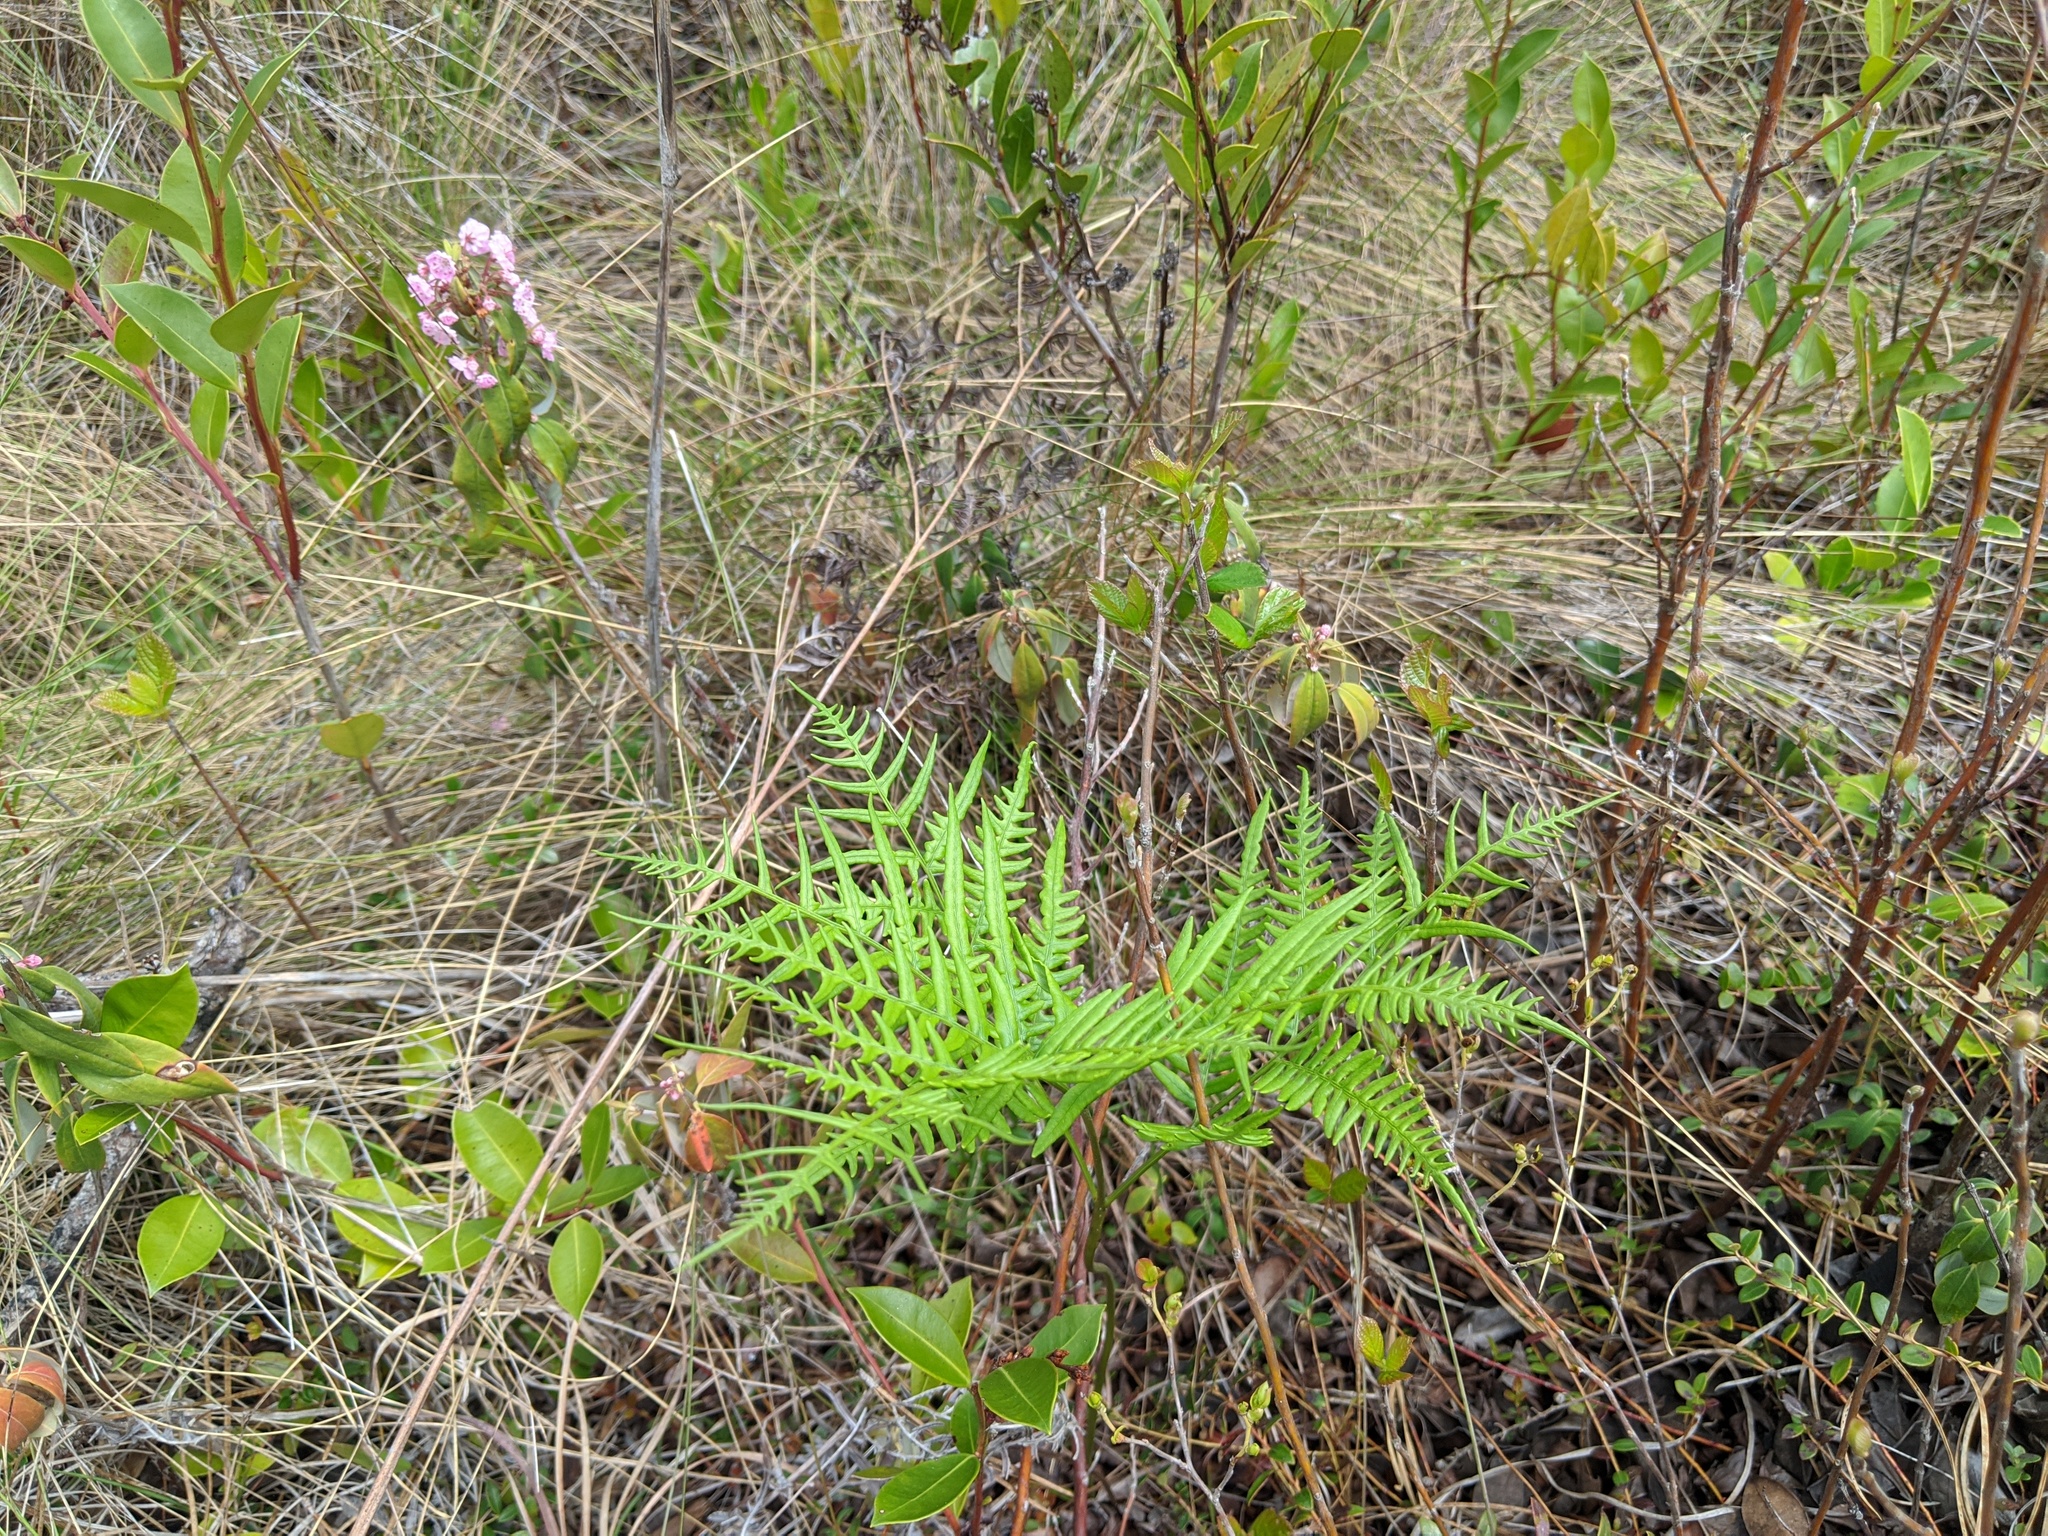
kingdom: Plantae
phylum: Tracheophyta
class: Polypodiopsida
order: Polypodiales
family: Dennstaedtiaceae
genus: Pteridium
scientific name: Pteridium
